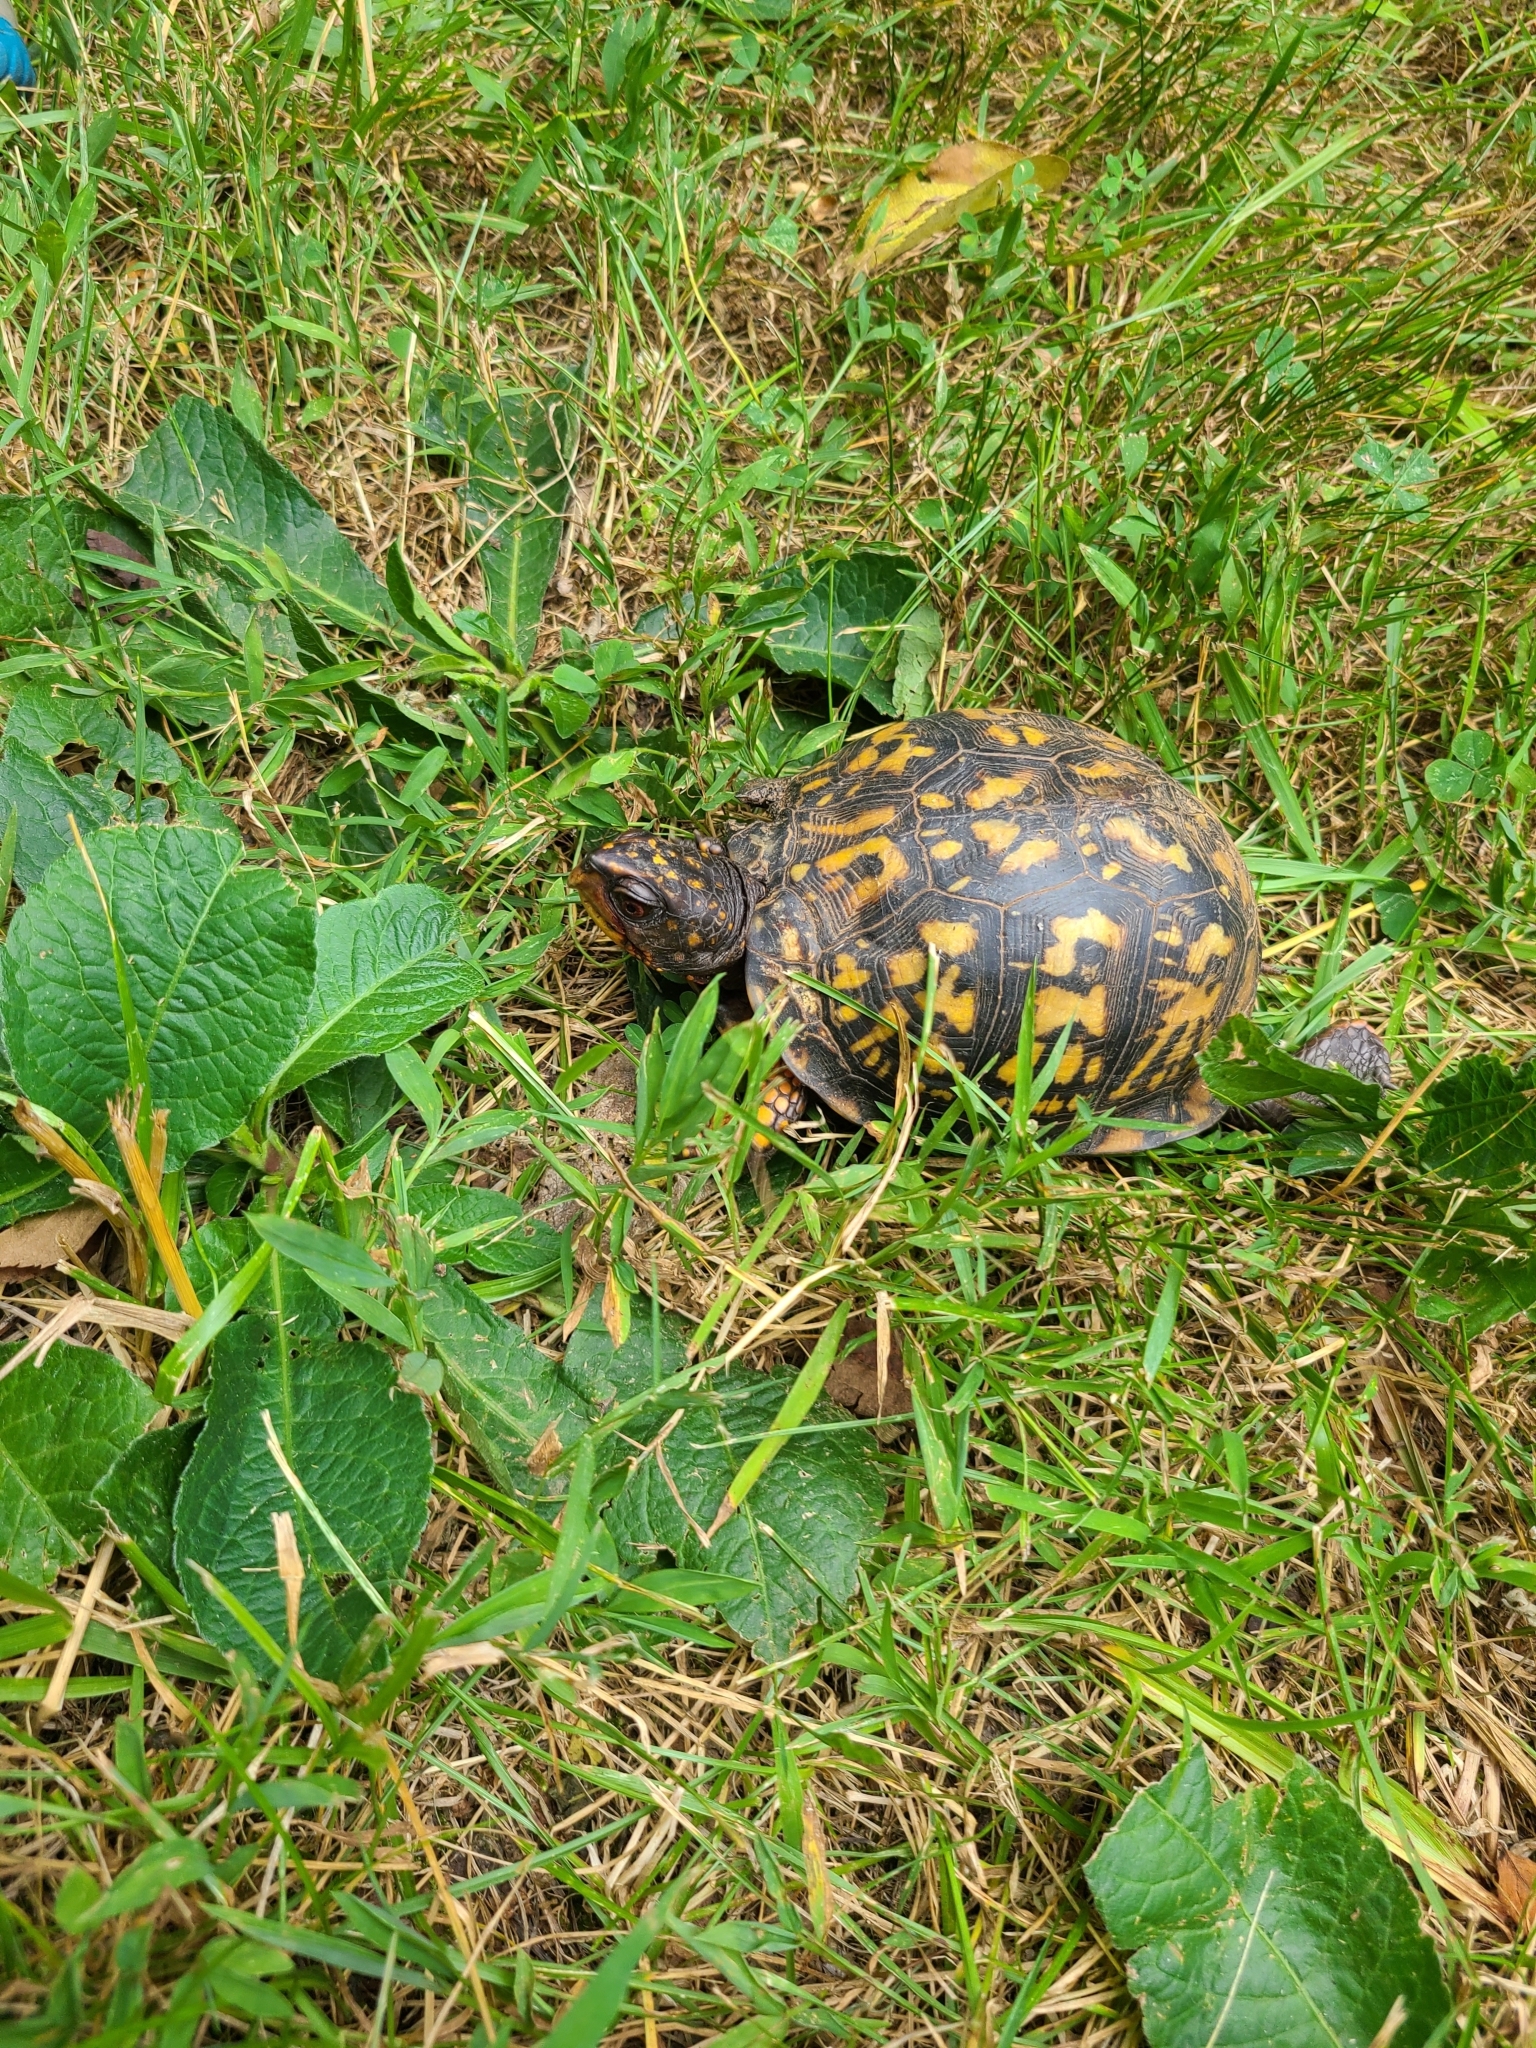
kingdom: Animalia
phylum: Chordata
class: Testudines
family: Emydidae
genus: Terrapene
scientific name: Terrapene carolina
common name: Common box turtle
